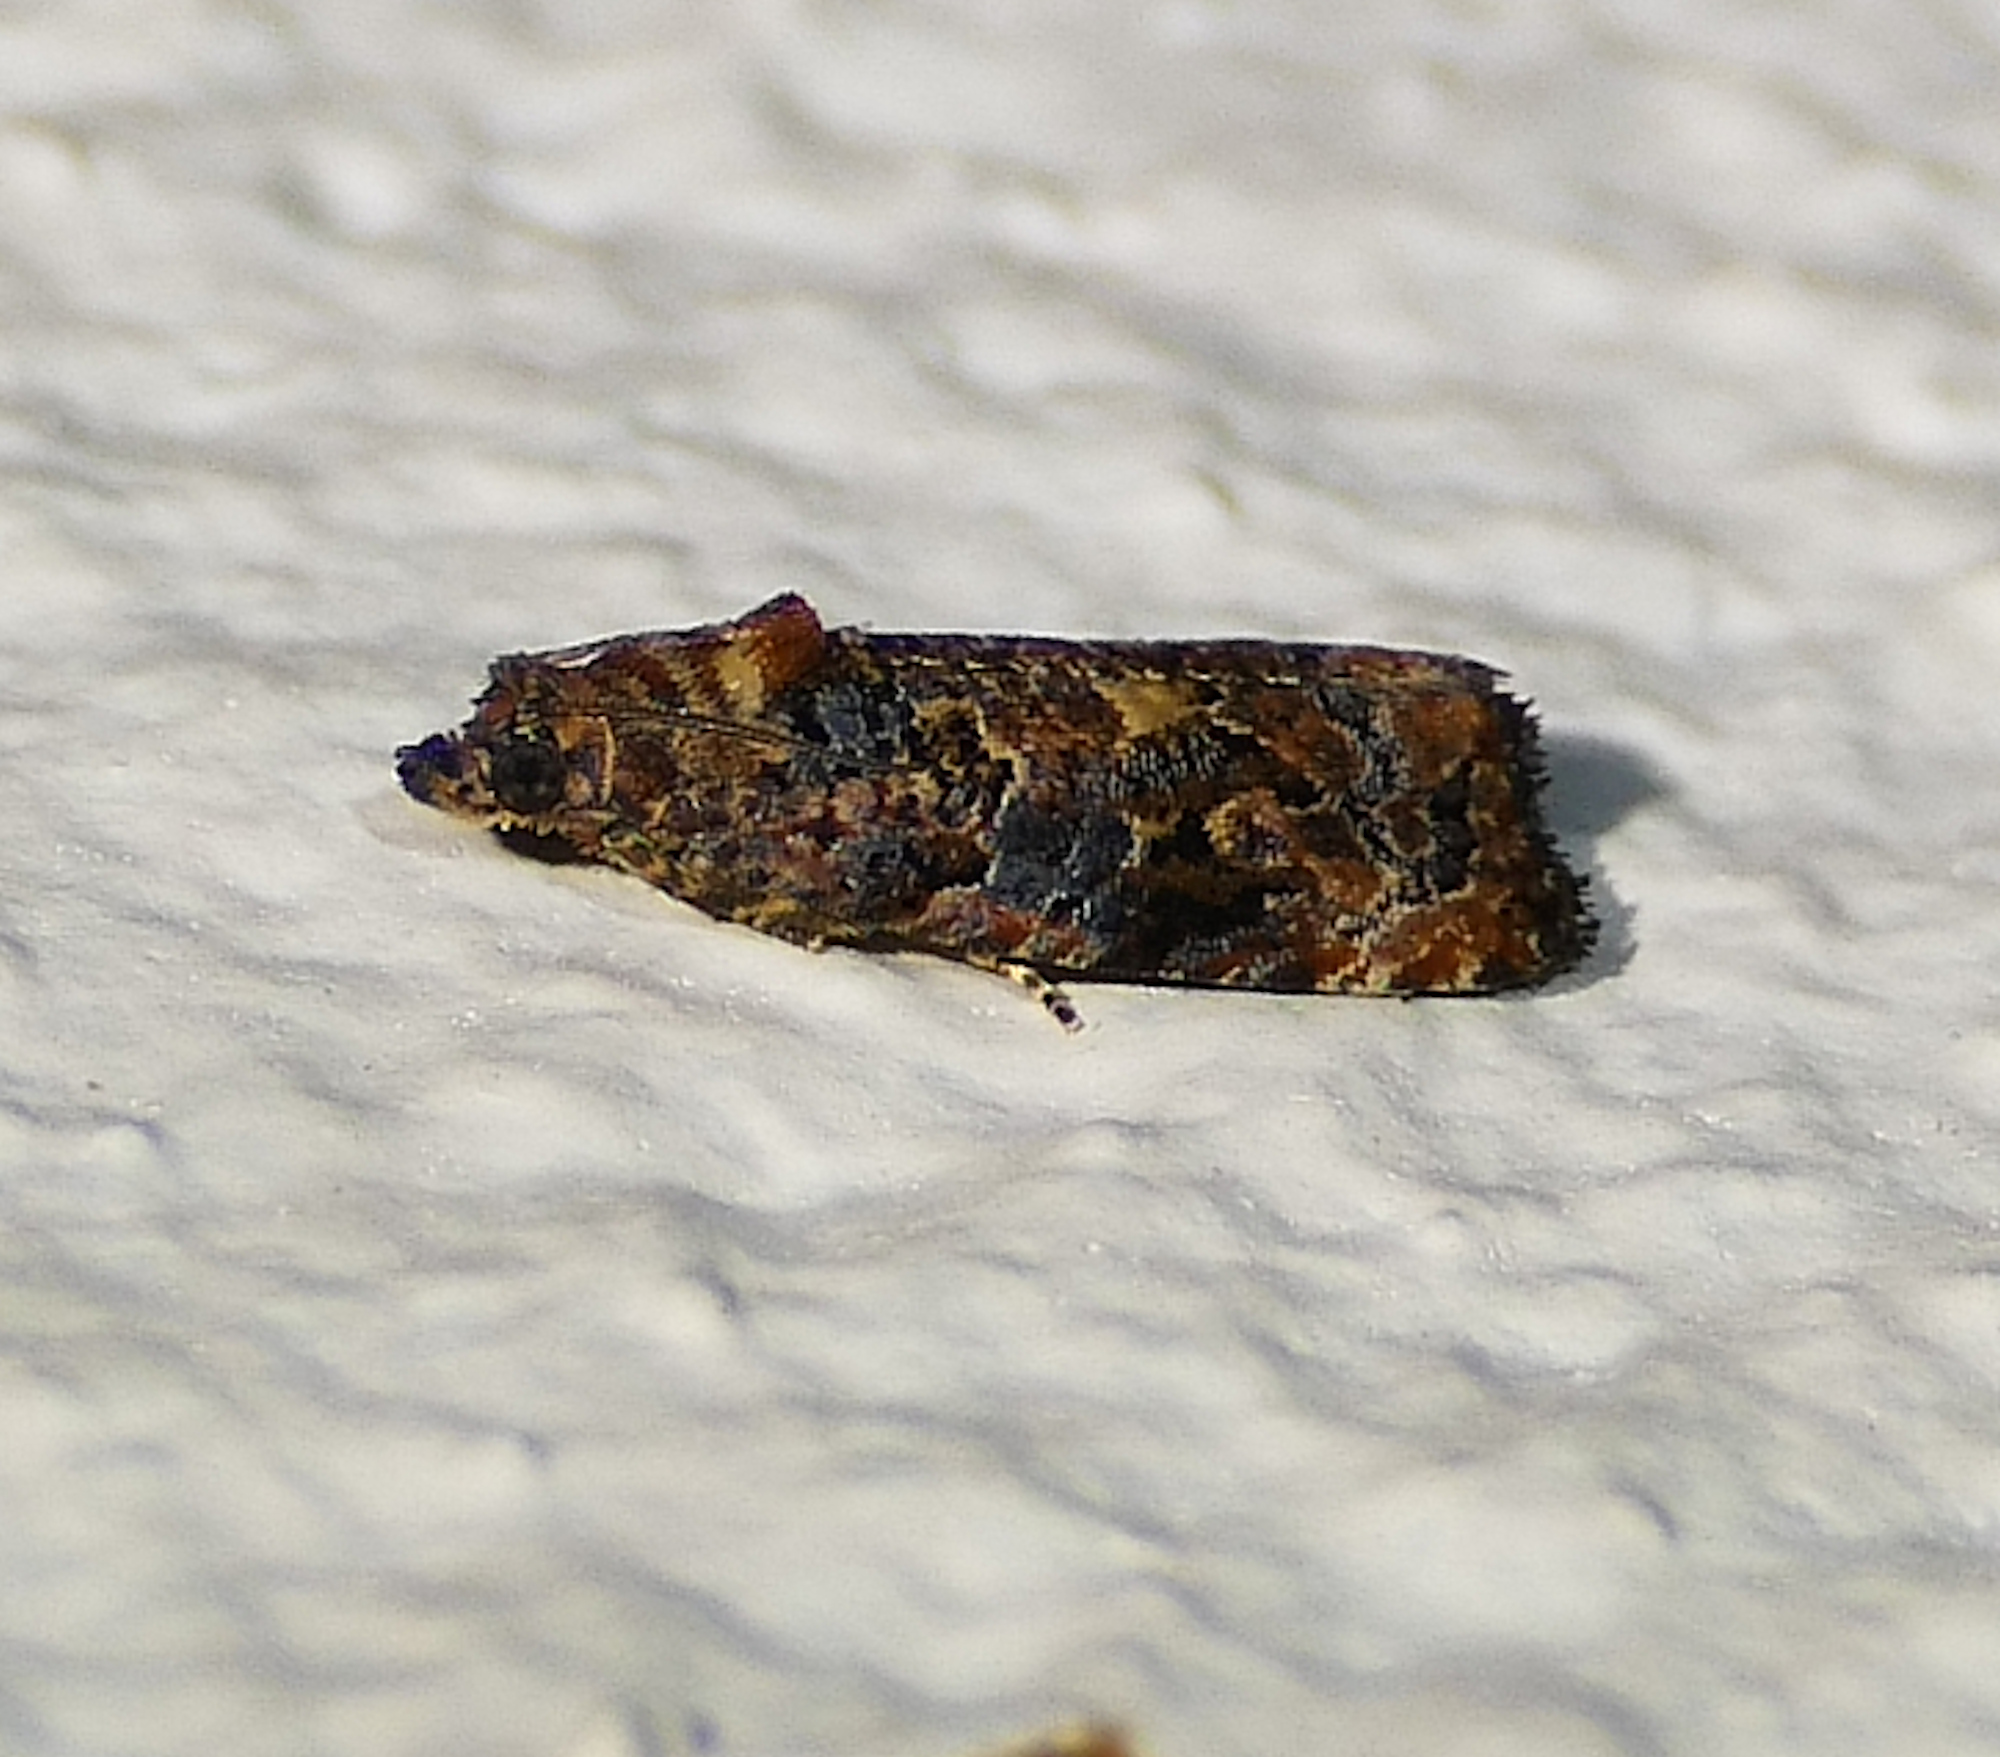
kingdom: Animalia
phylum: Arthropoda
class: Insecta
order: Lepidoptera
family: Tortricidae
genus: Endothenia
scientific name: Endothenia hebesana
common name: Verbena bud moth
